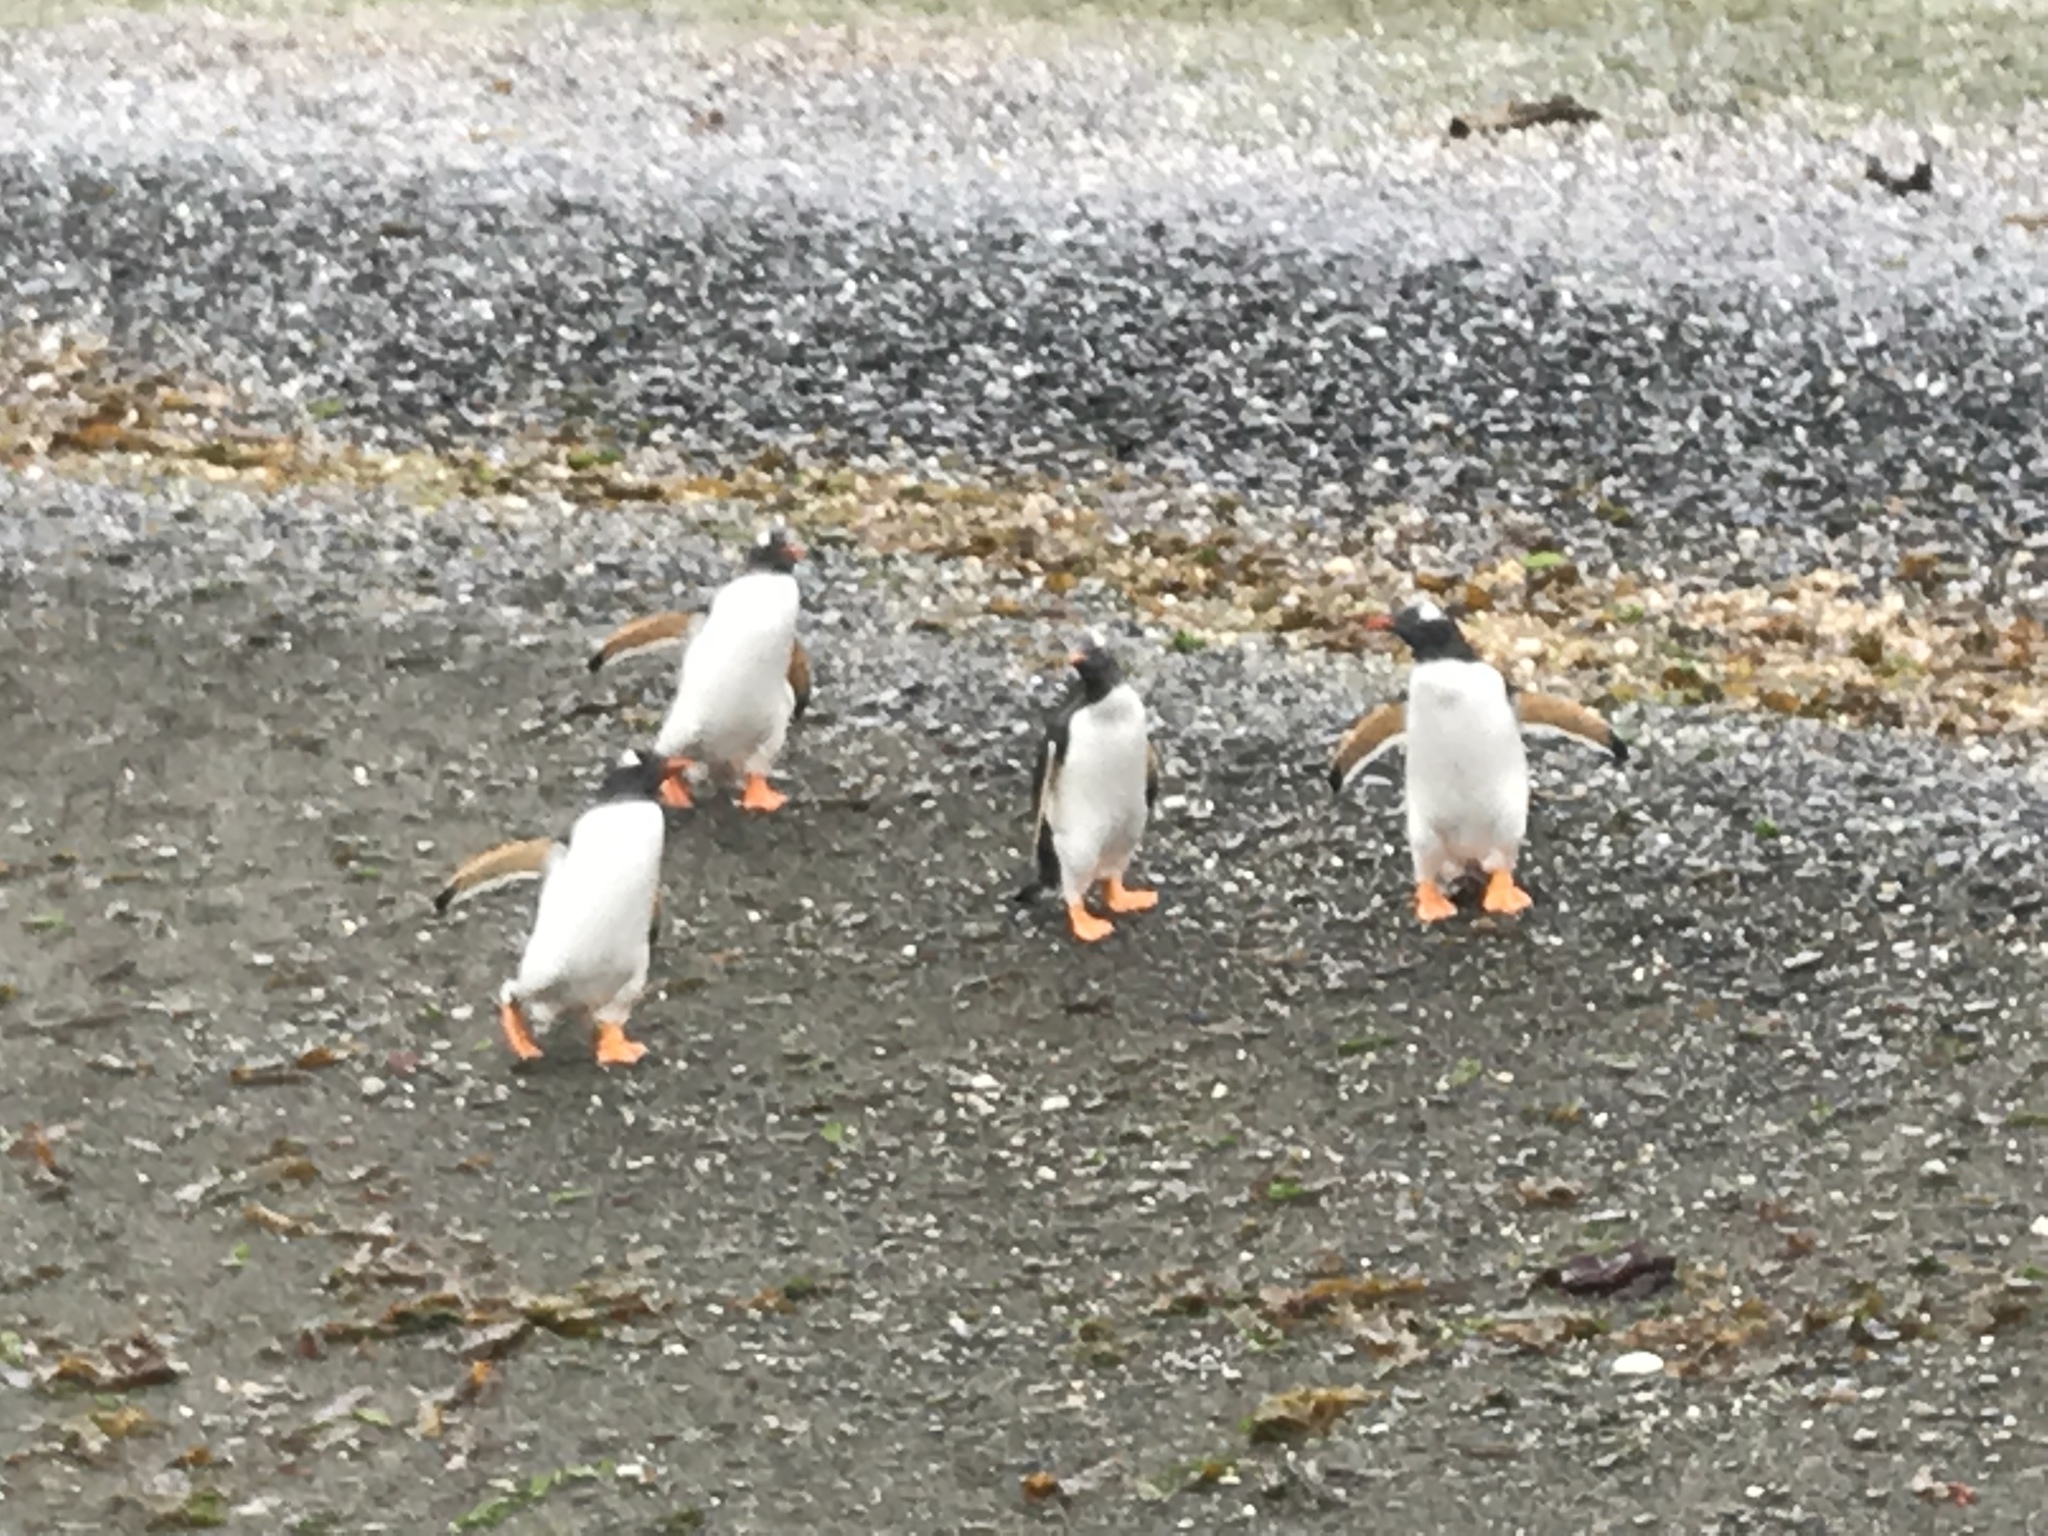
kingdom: Animalia
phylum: Chordata
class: Aves
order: Sphenisciformes
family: Spheniscidae
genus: Pygoscelis
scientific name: Pygoscelis papua
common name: Gentoo penguin
